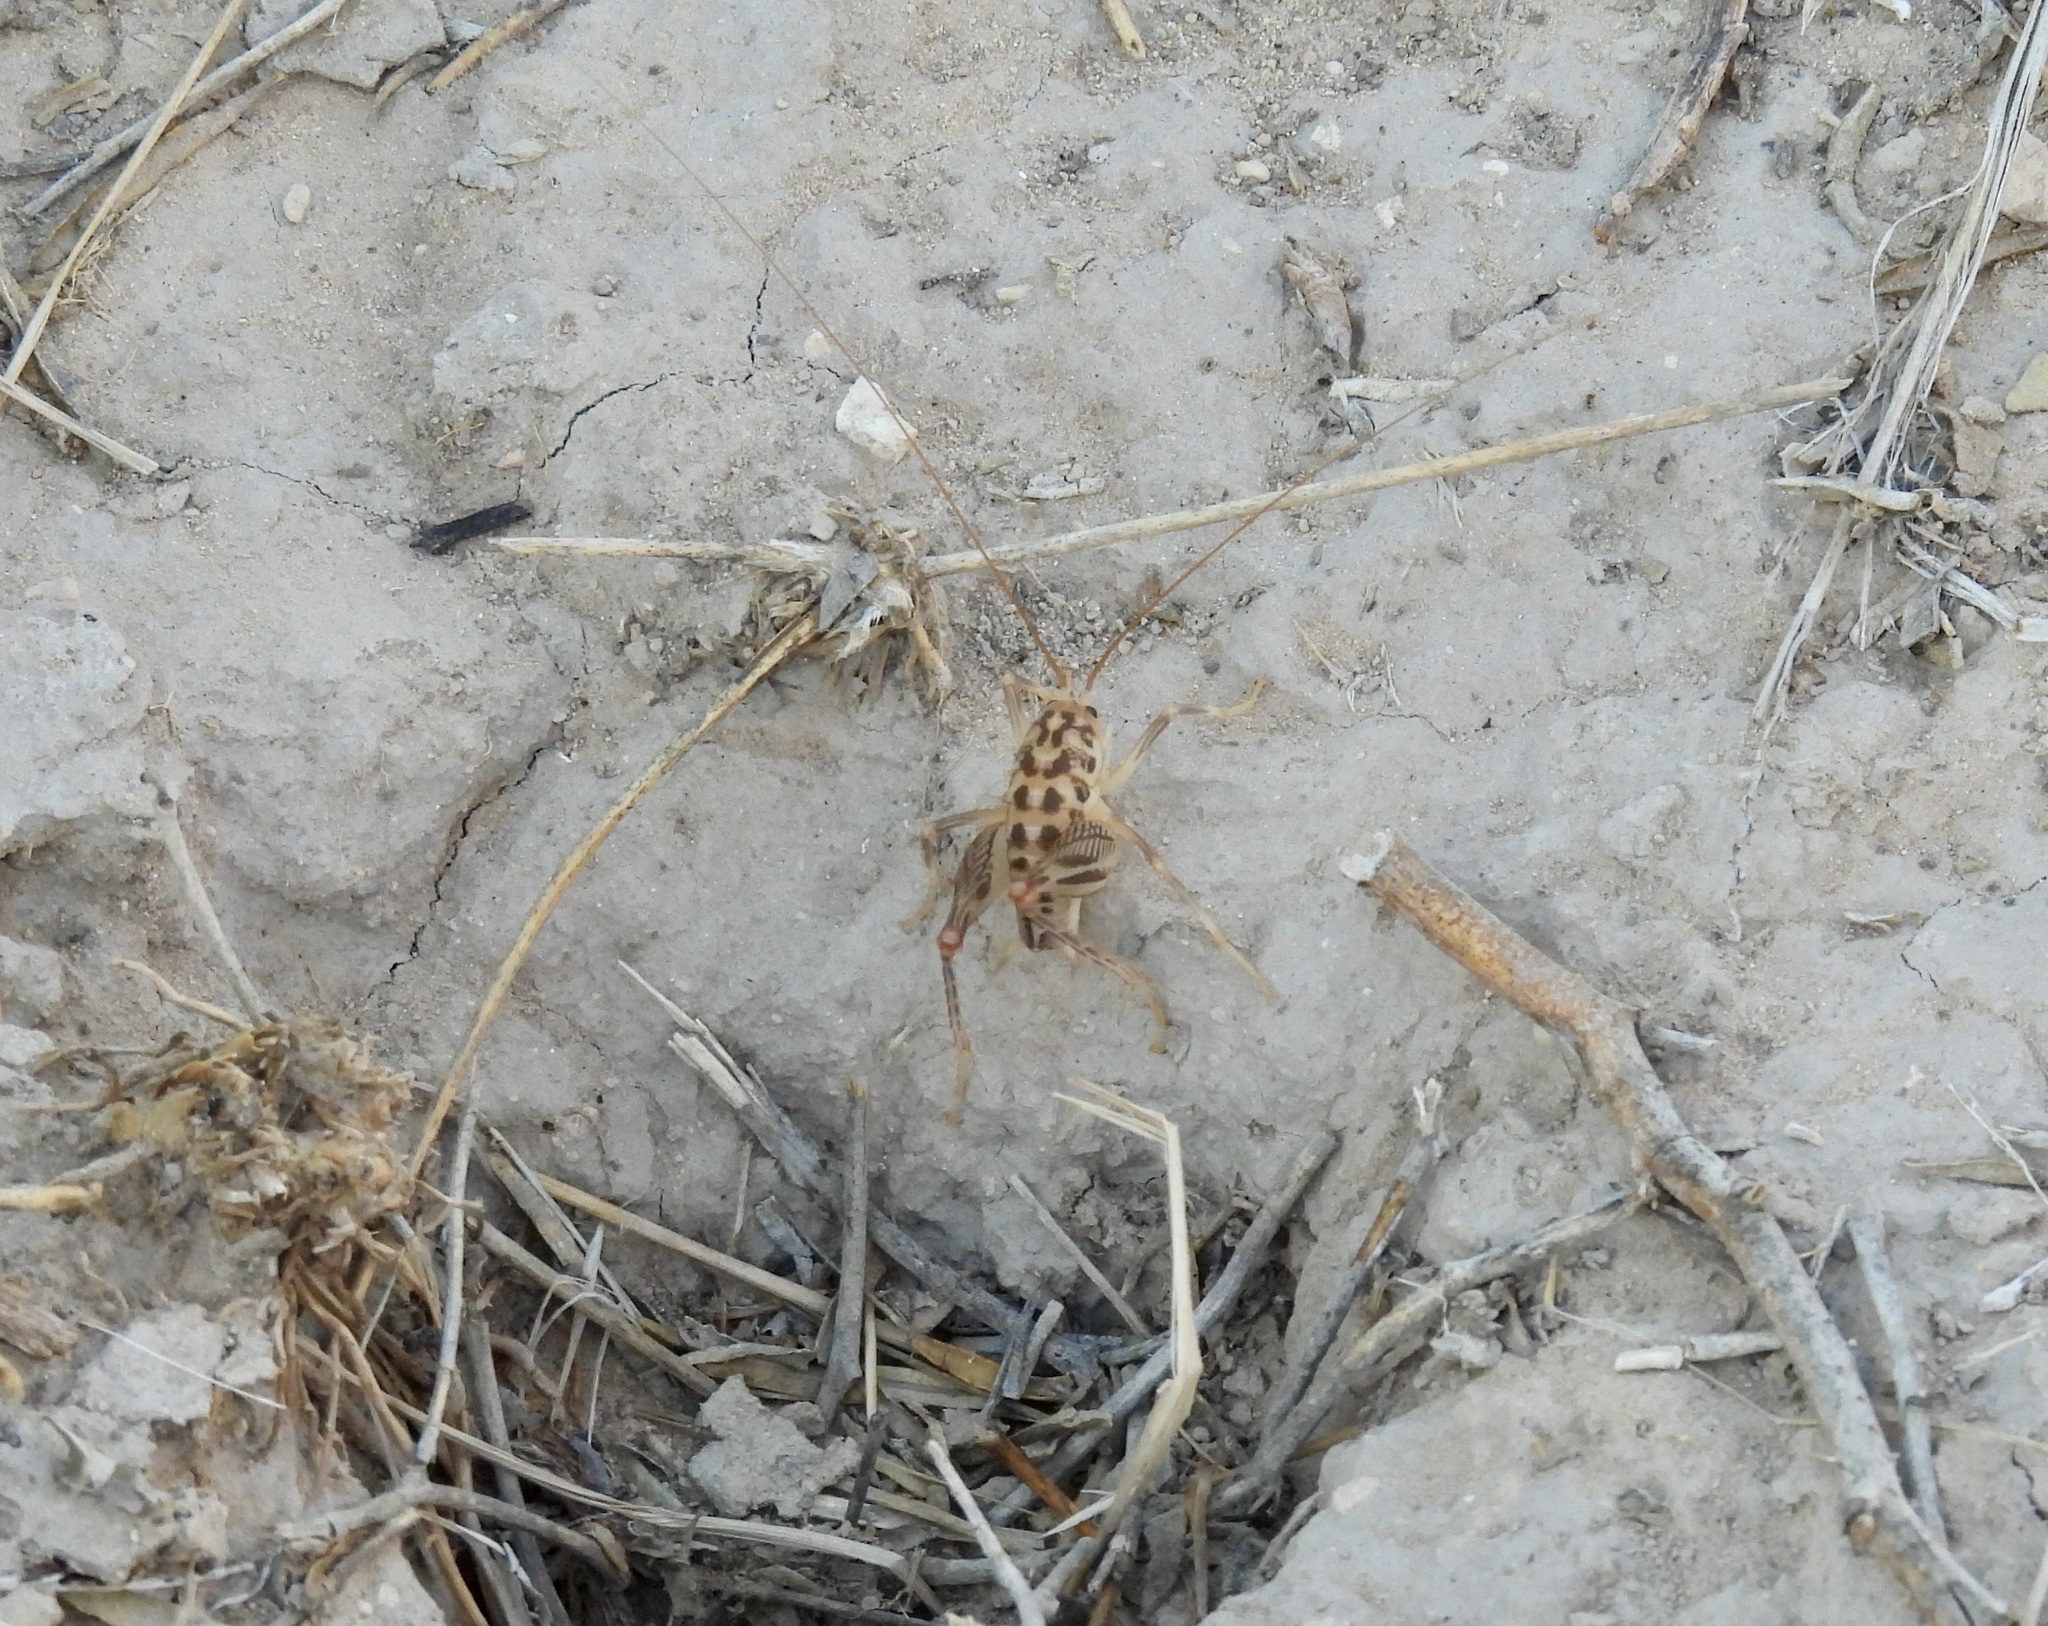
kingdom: Animalia
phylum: Arthropoda
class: Insecta
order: Orthoptera
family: Rhaphidophoridae
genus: Ceuthophilus
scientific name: Ceuthophilus pallidus
